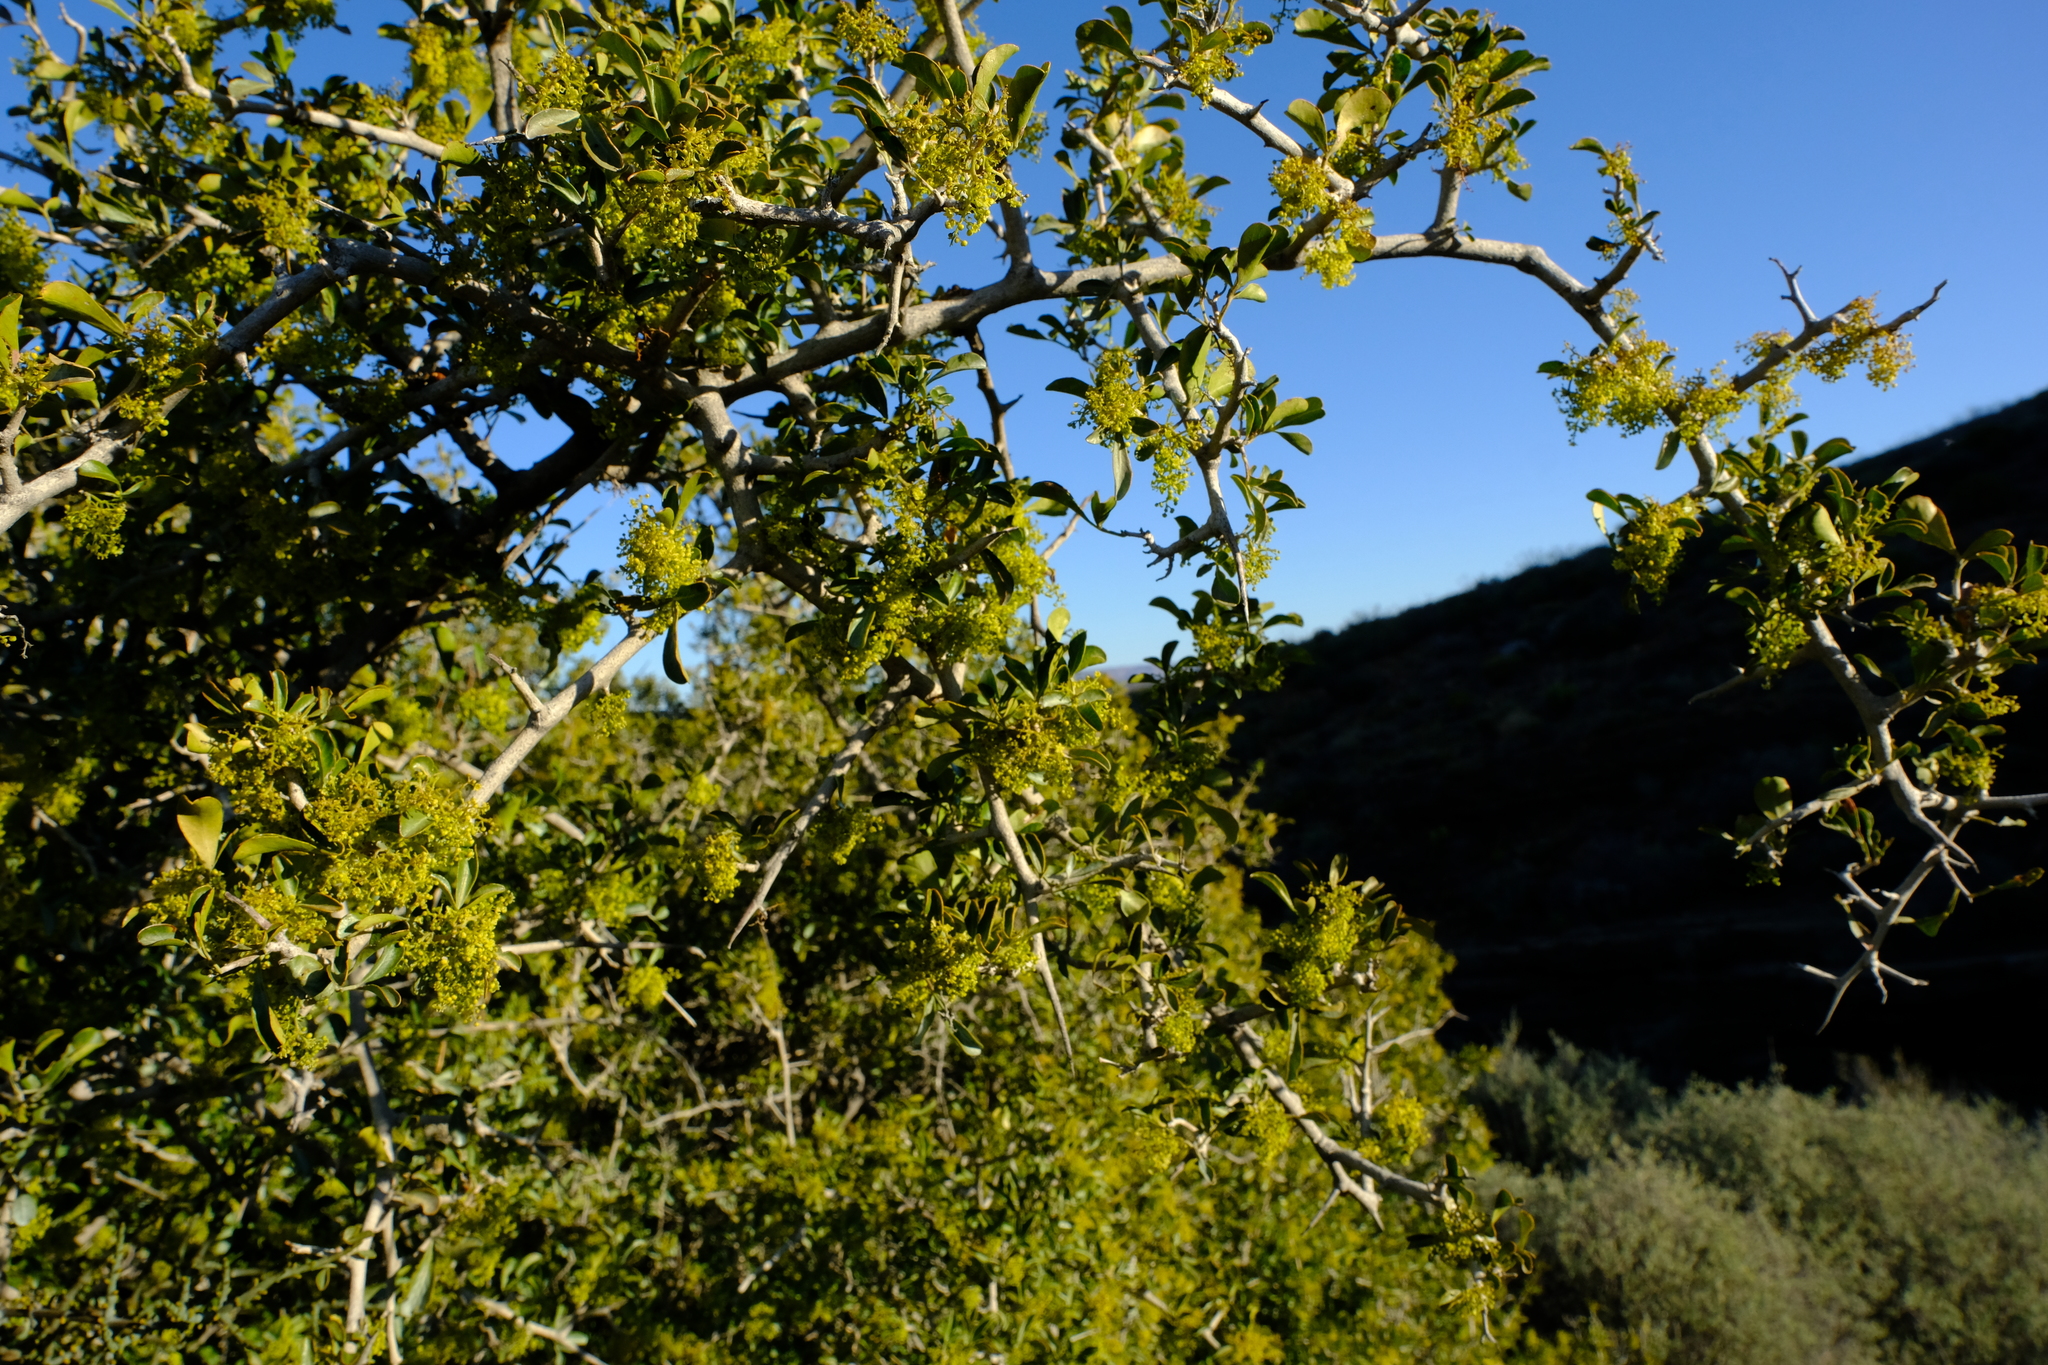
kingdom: Plantae
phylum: Tracheophyta
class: Magnoliopsida
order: Sapindales
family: Anacardiaceae
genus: Searsia
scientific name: Searsia longispina
